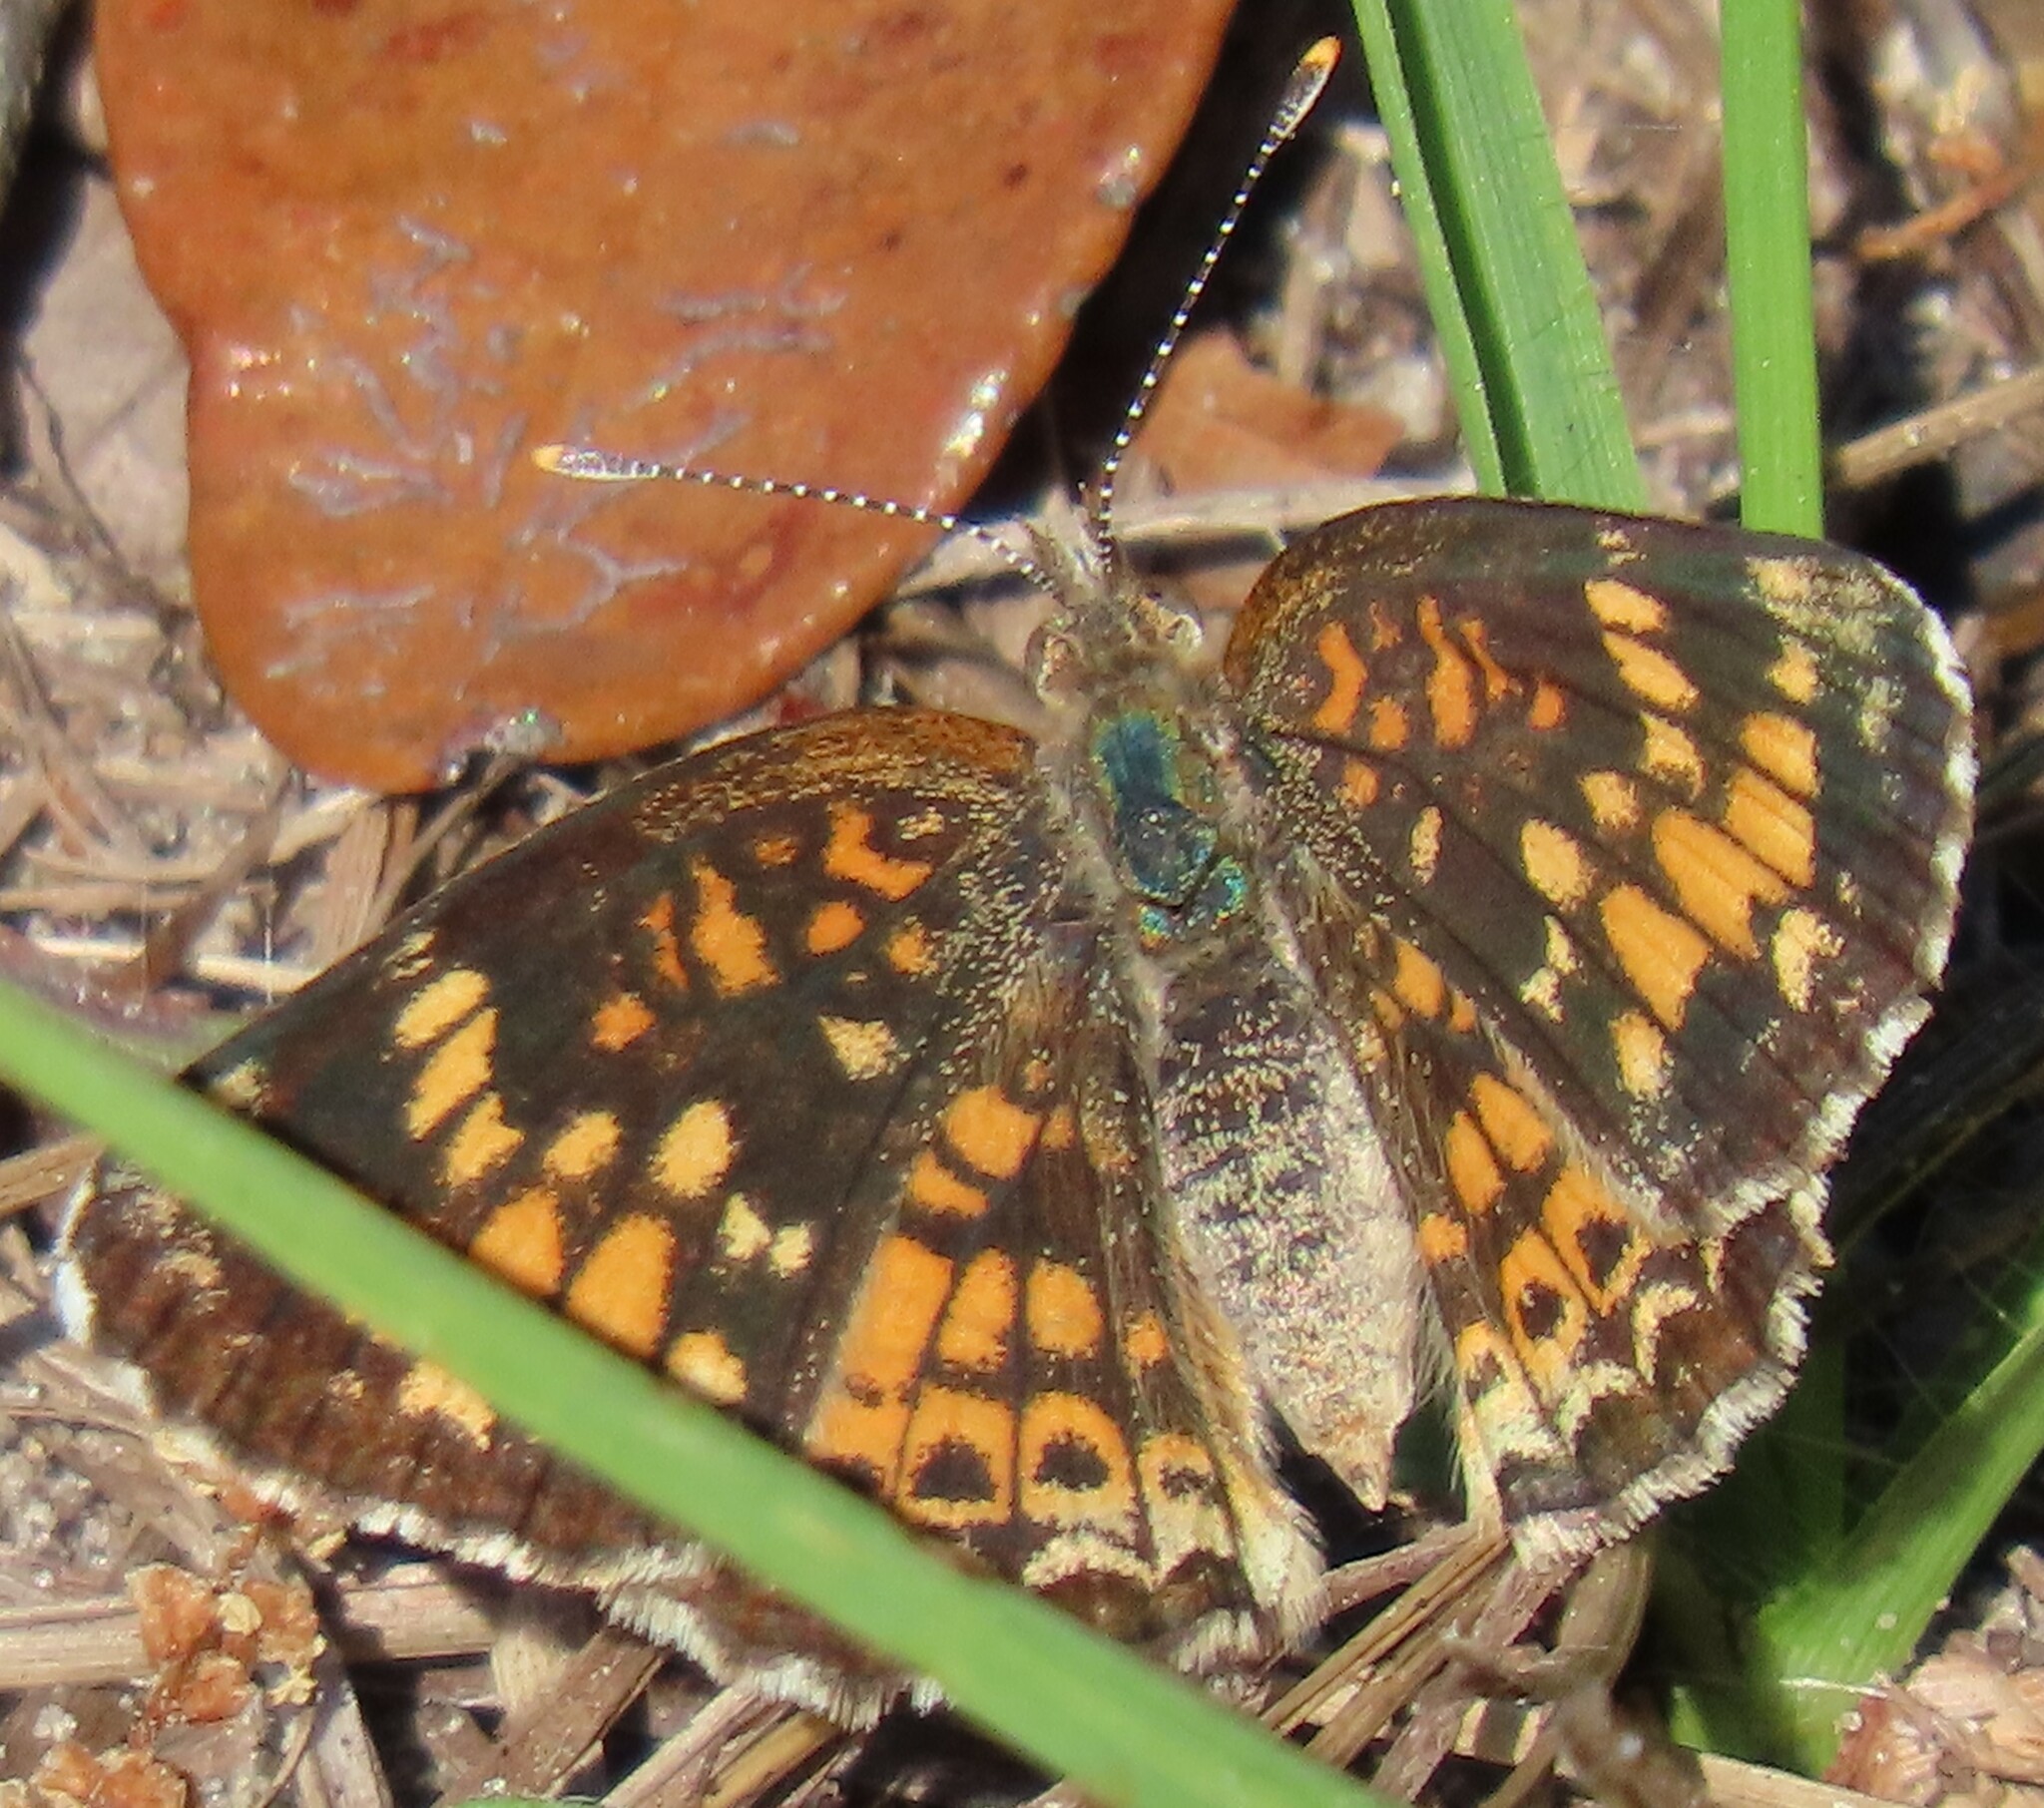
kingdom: Animalia
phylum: Arthropoda
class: Insecta
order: Lepidoptera
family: Nymphalidae
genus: Phyciodes
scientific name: Phyciodes tharos
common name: Pearl crescent
